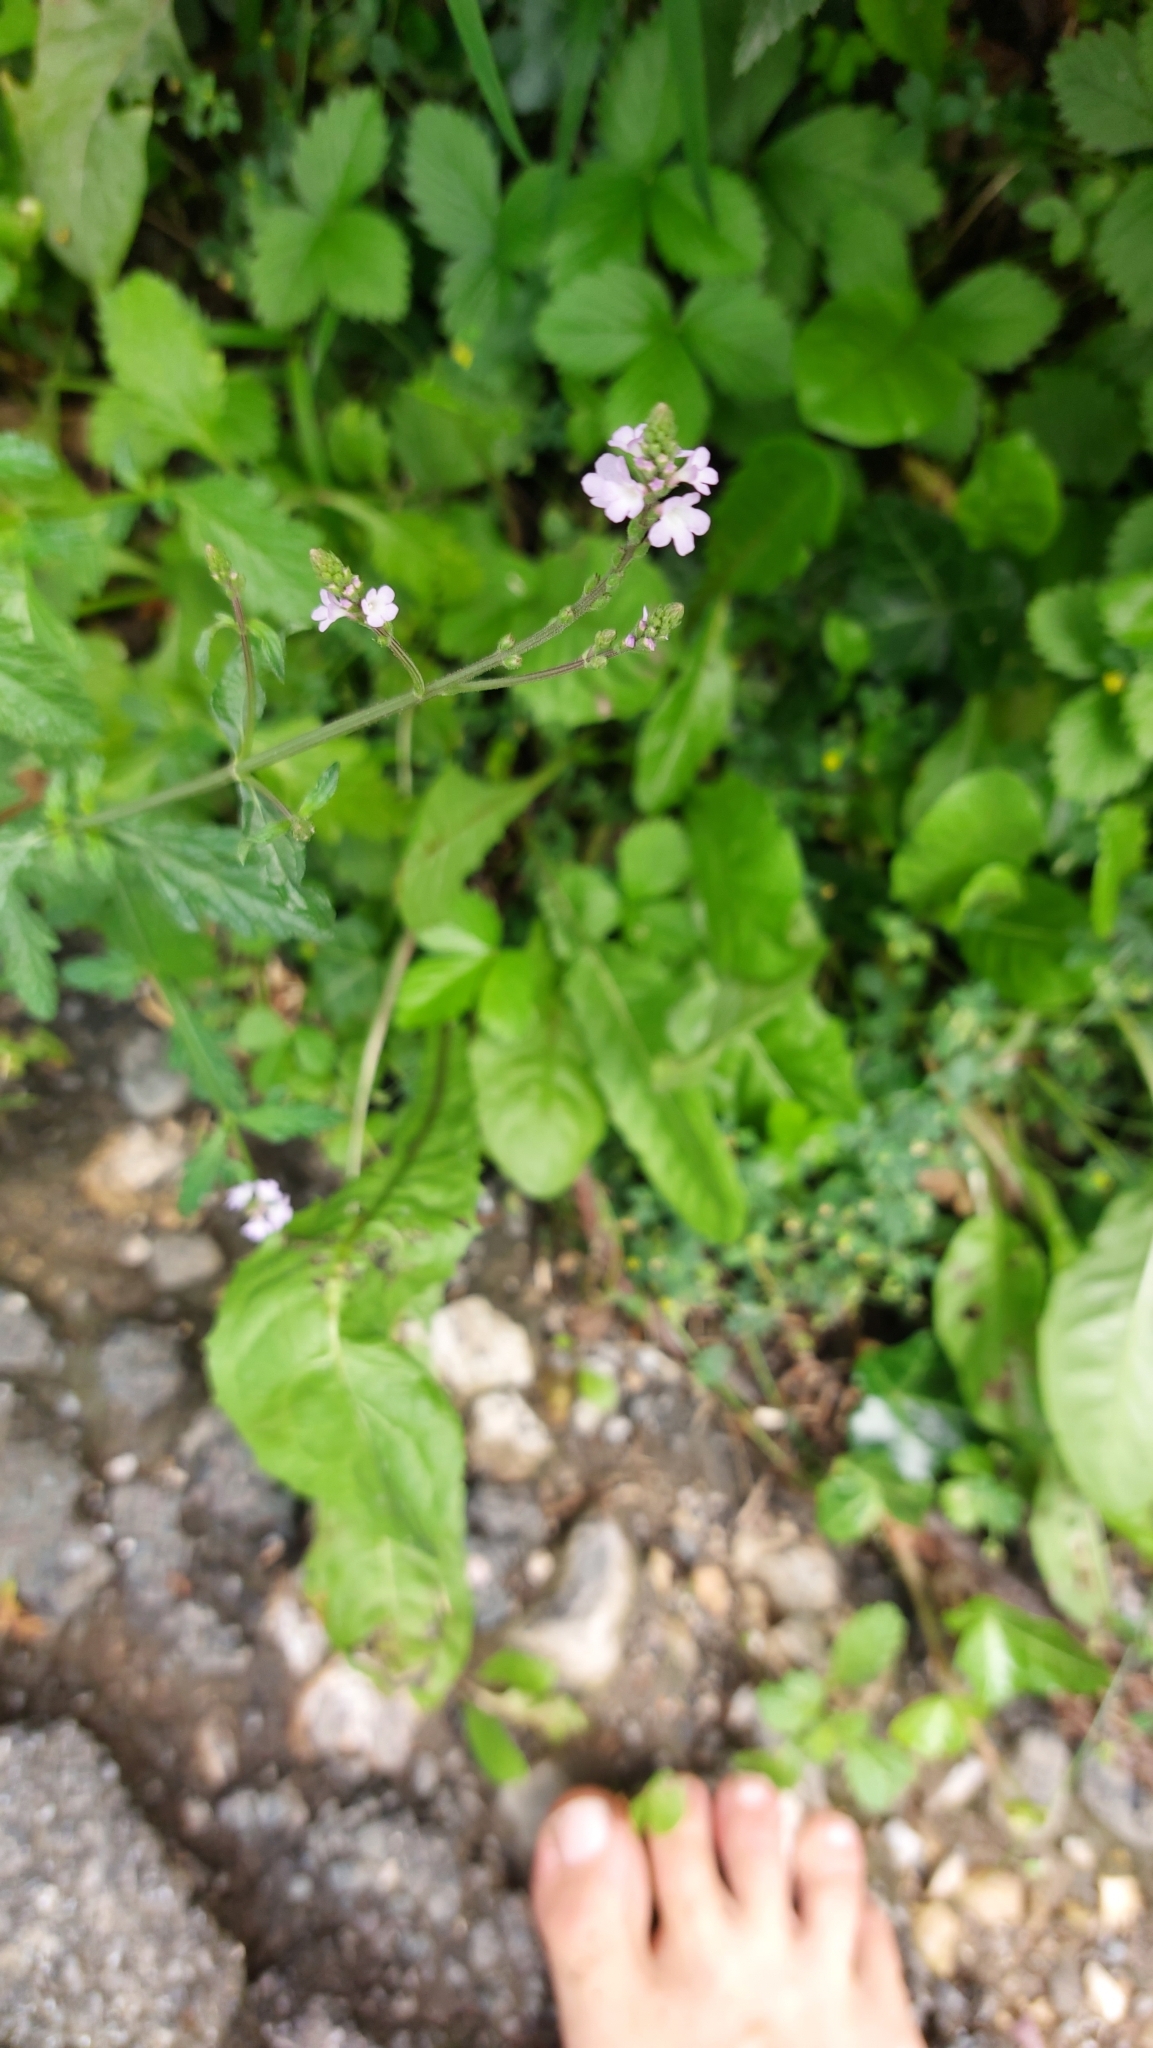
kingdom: Plantae
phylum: Tracheophyta
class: Magnoliopsida
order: Lamiales
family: Verbenaceae
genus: Verbena
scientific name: Verbena officinalis
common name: Vervain
